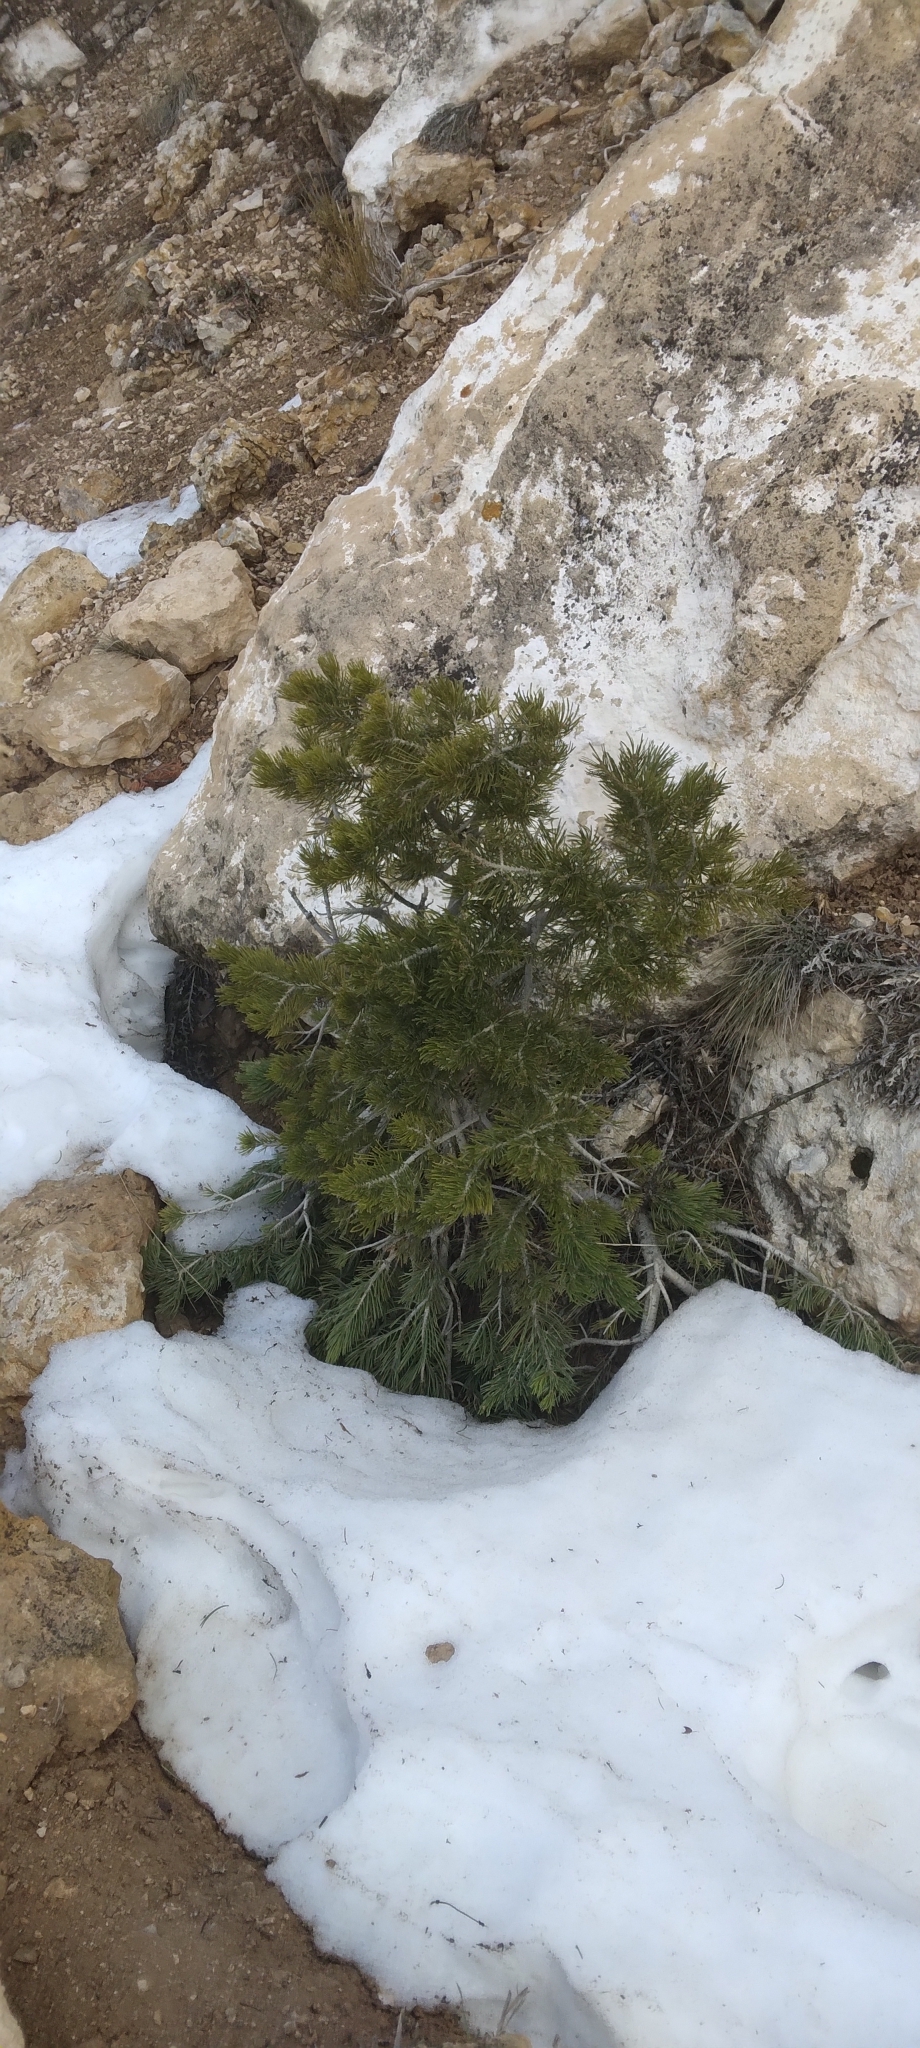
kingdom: Plantae
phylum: Tracheophyta
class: Pinopsida
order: Pinales
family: Pinaceae
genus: Pinus
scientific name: Pinus edulis
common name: Colorado pinyon
